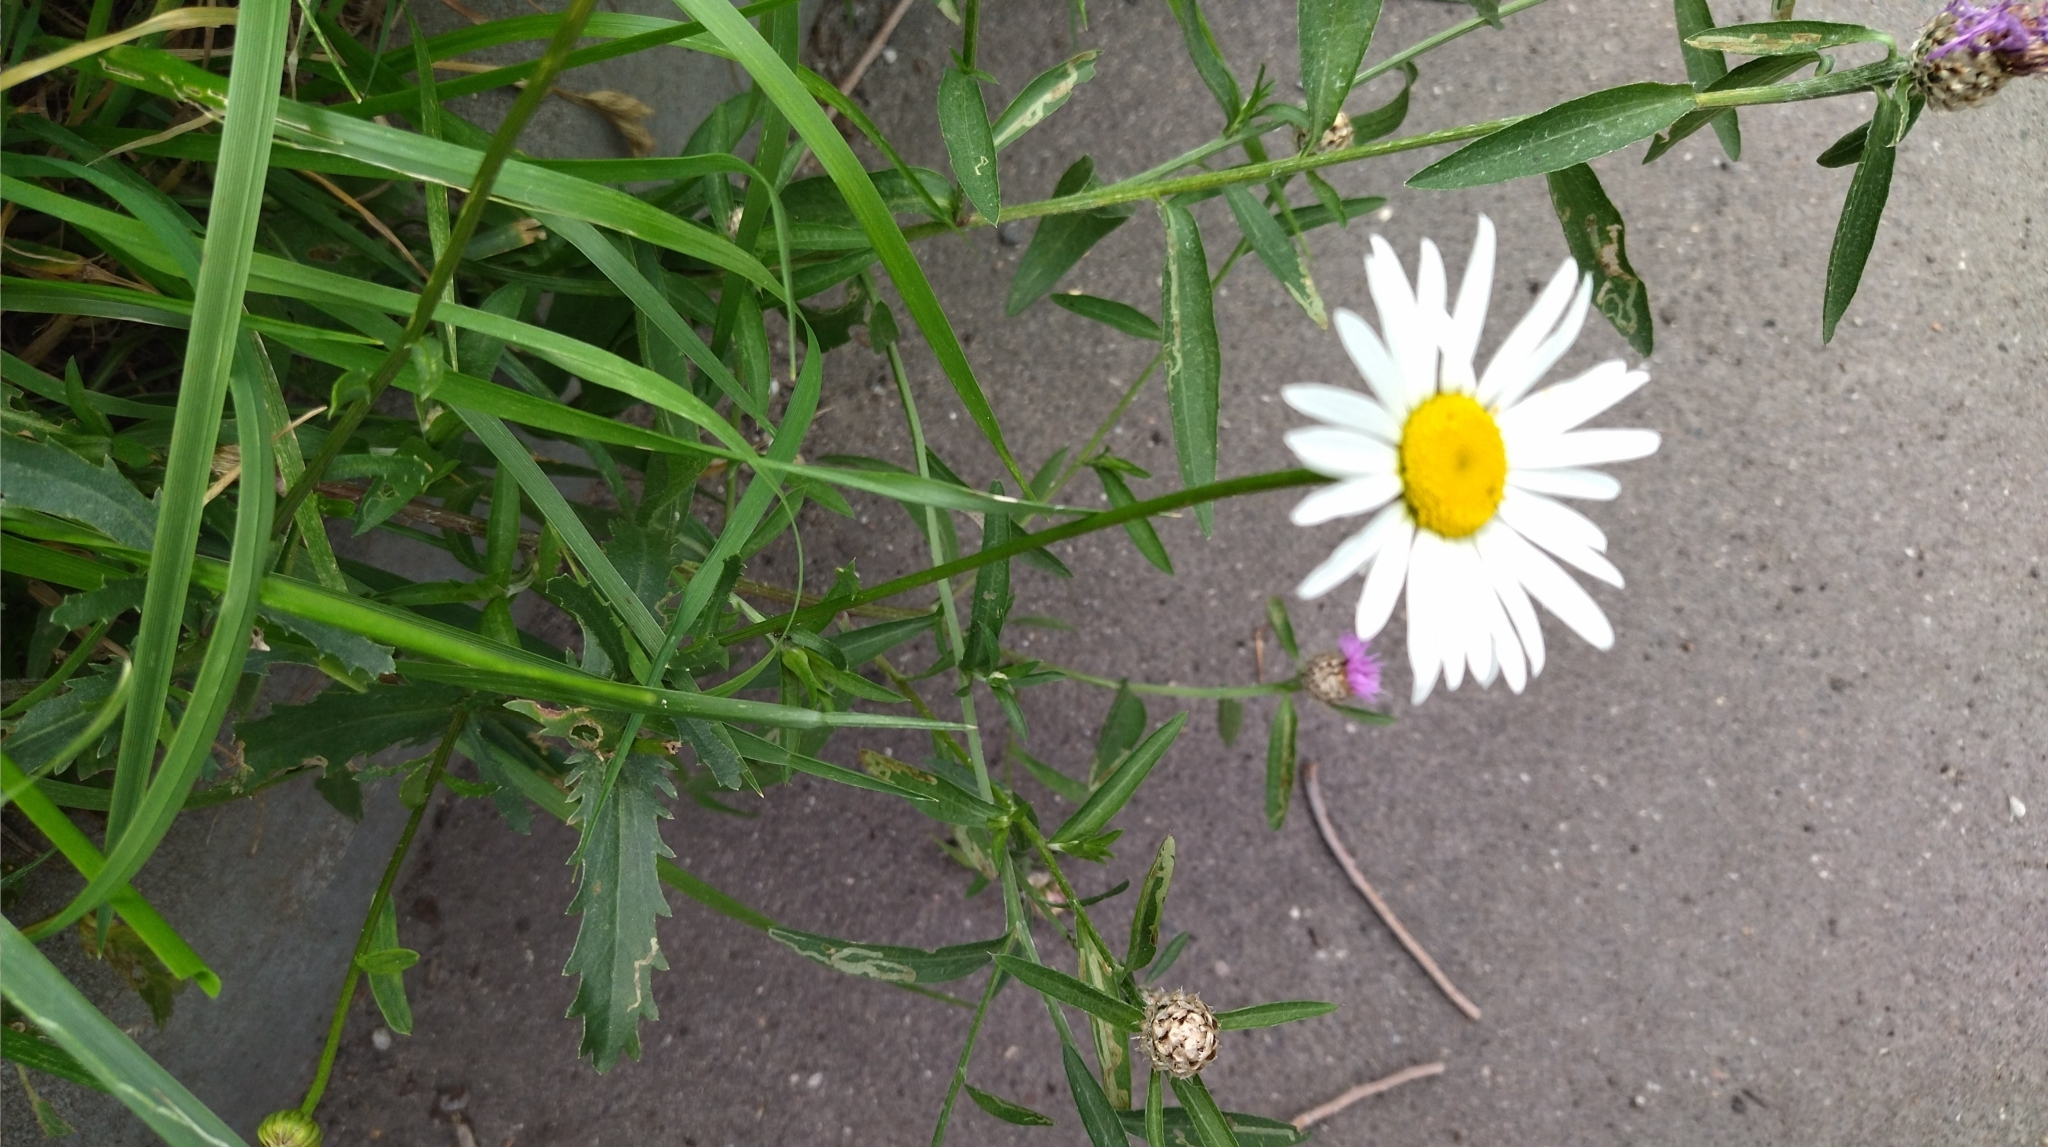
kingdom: Plantae
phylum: Tracheophyta
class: Magnoliopsida
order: Asterales
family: Asteraceae
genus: Leucanthemum
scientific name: Leucanthemum vulgare
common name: Oxeye daisy
